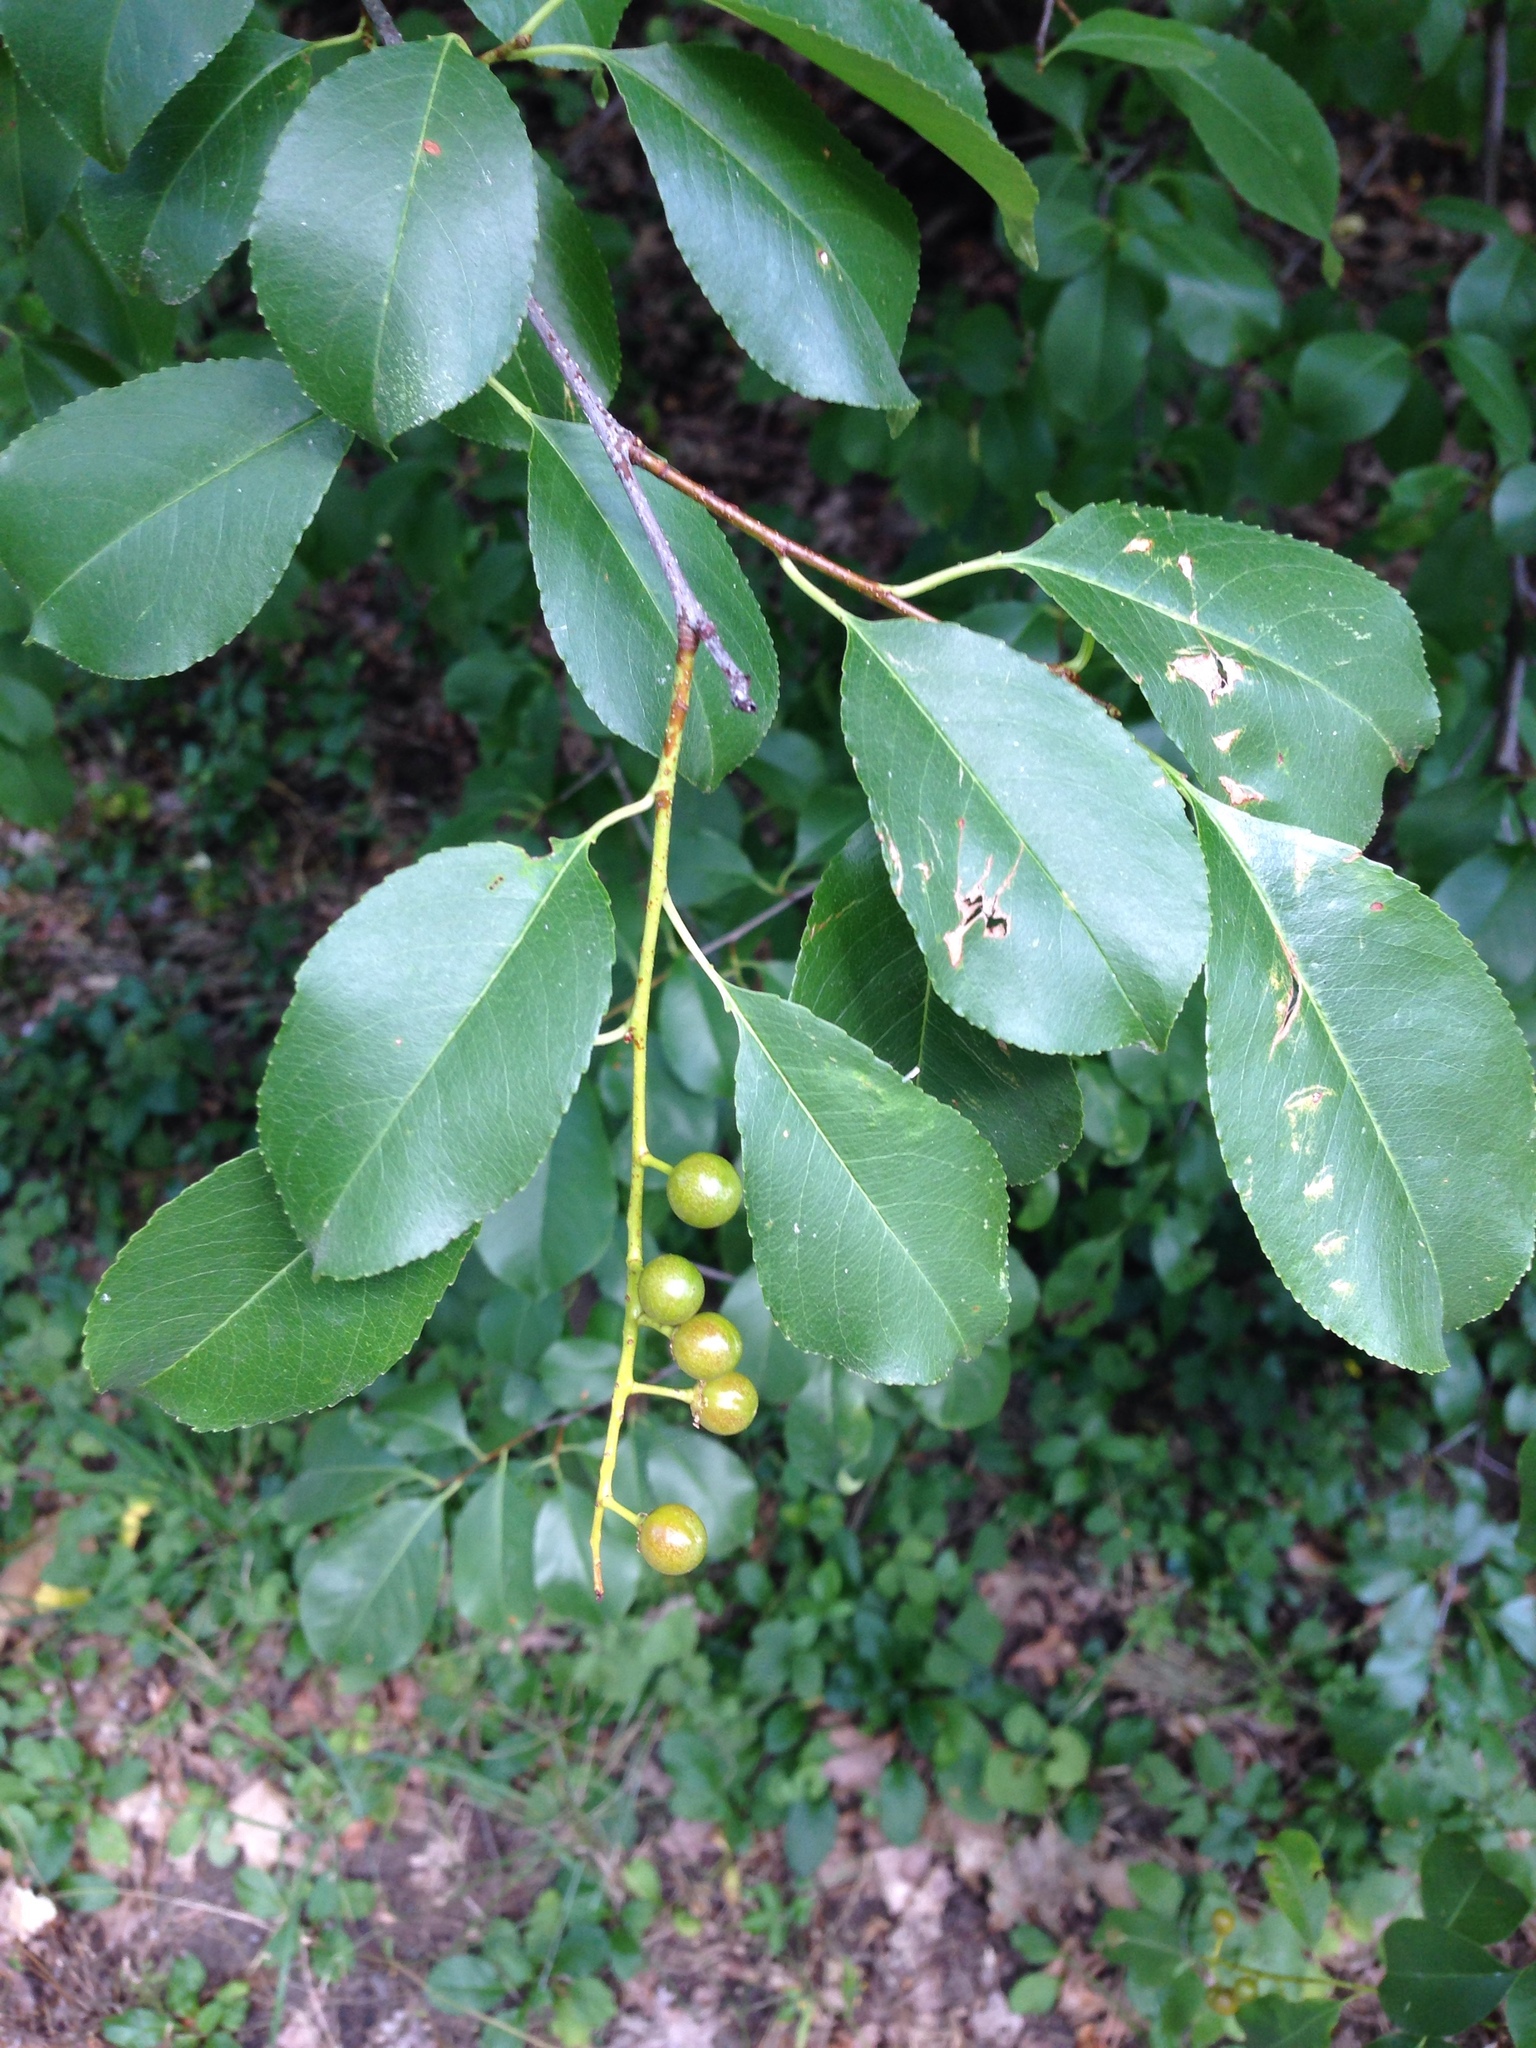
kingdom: Plantae
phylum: Tracheophyta
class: Magnoliopsida
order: Rosales
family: Rosaceae
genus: Prunus
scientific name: Prunus serotina
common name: Black cherry
